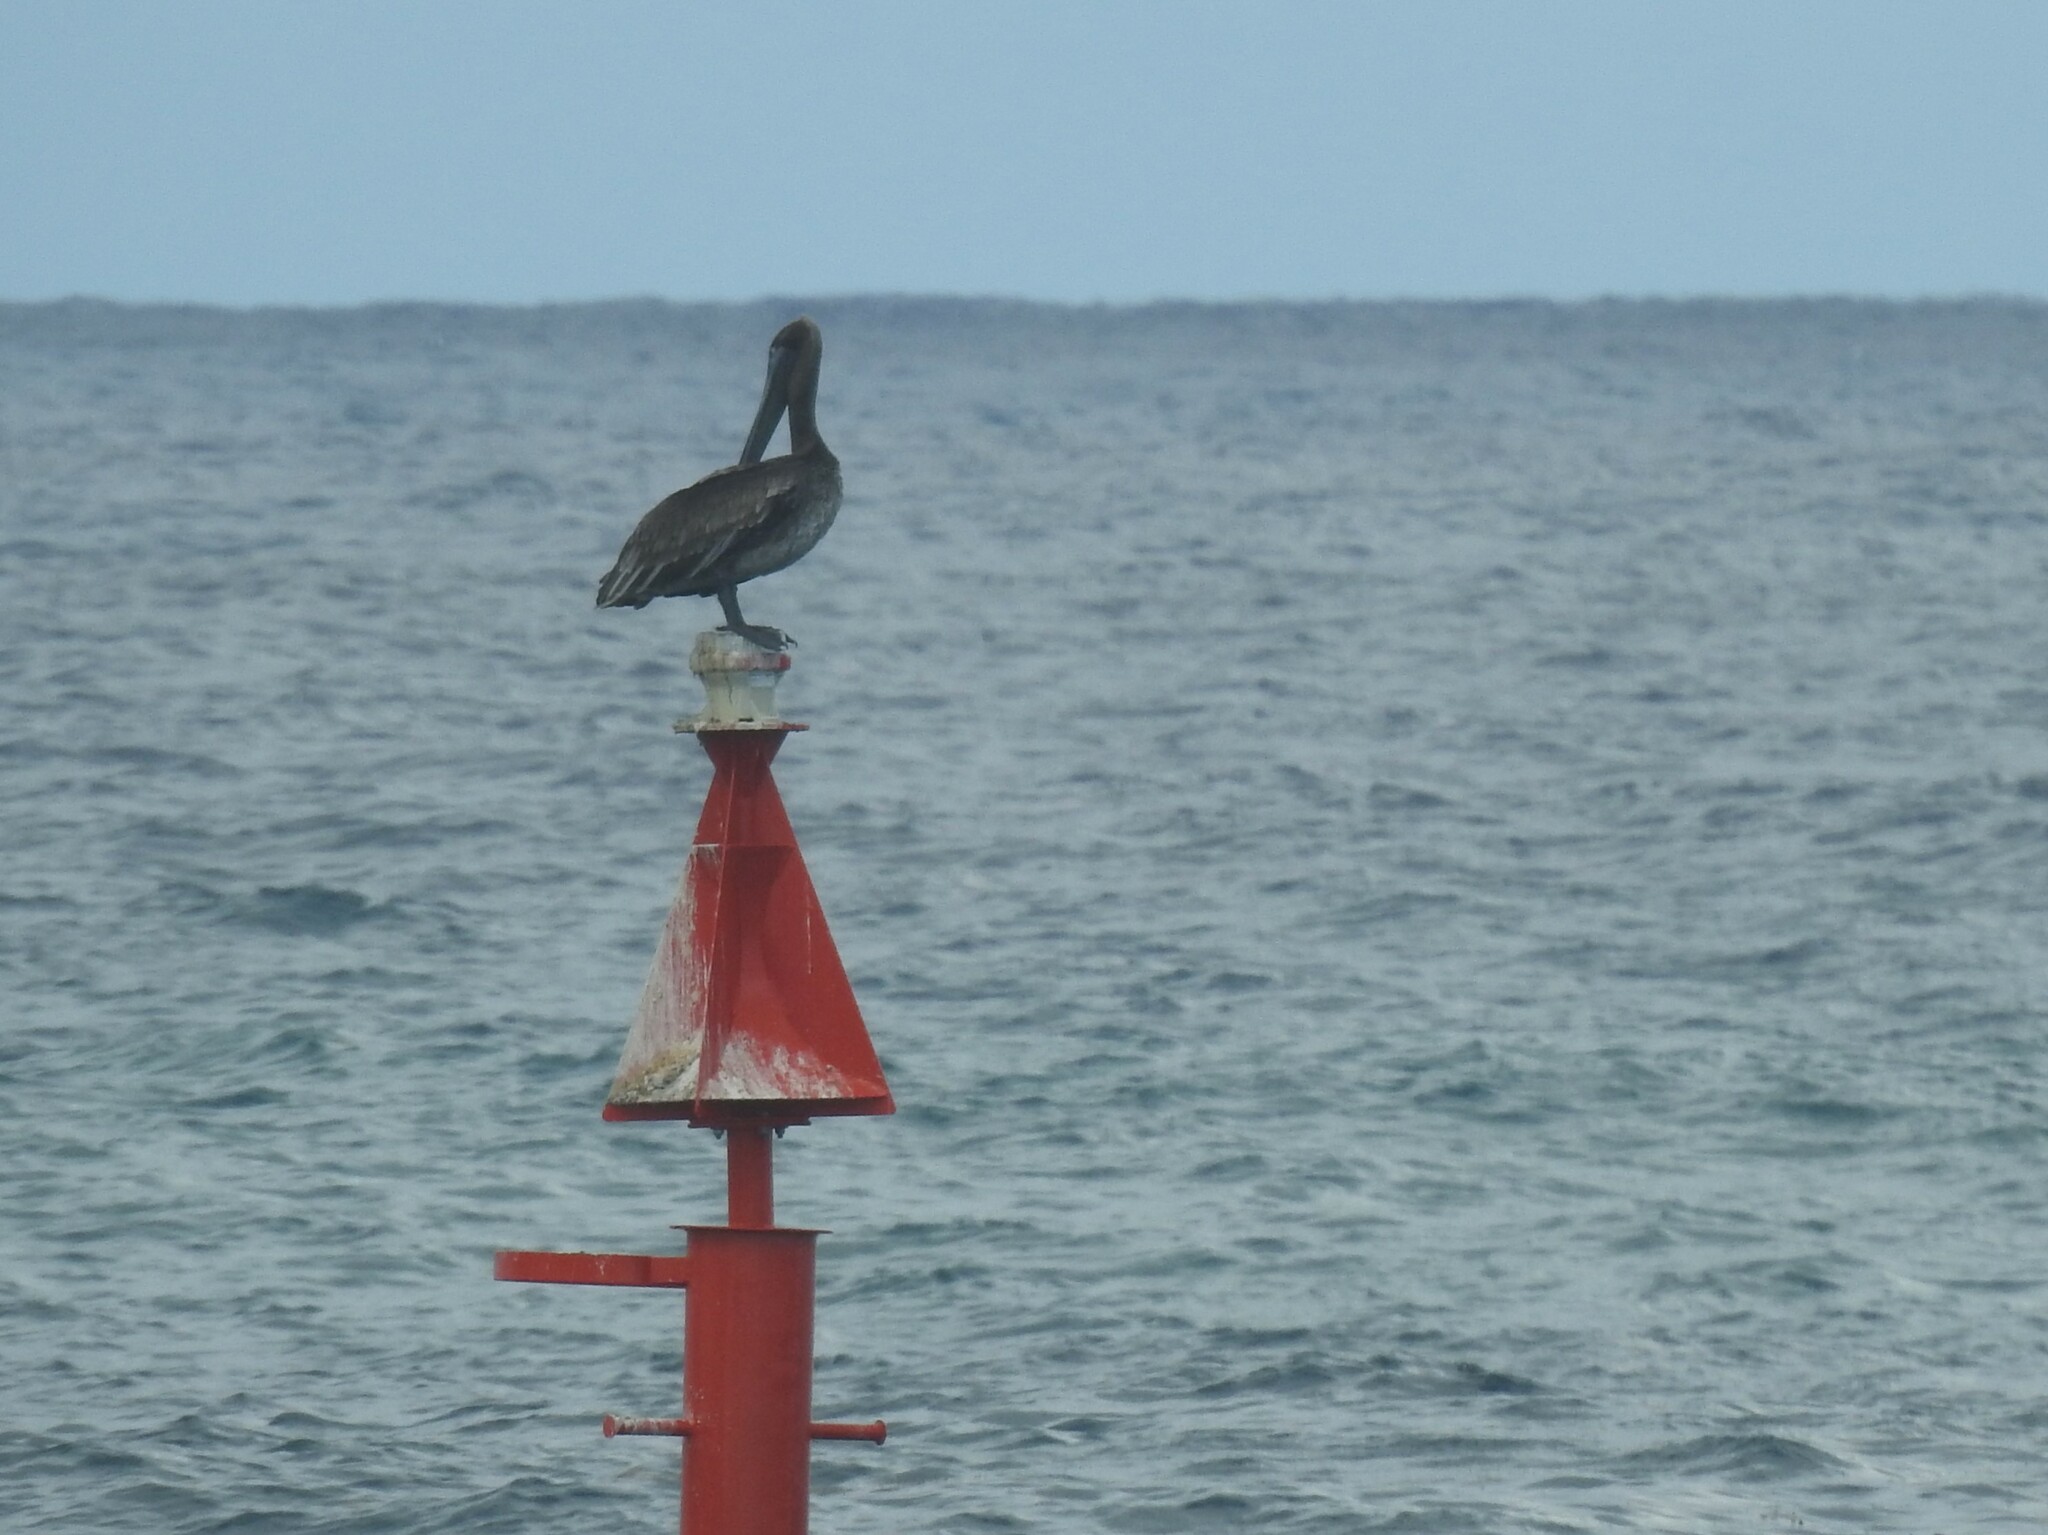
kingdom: Animalia
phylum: Chordata
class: Aves
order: Pelecaniformes
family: Pelecanidae
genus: Pelecanus
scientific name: Pelecanus occidentalis
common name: Brown pelican
